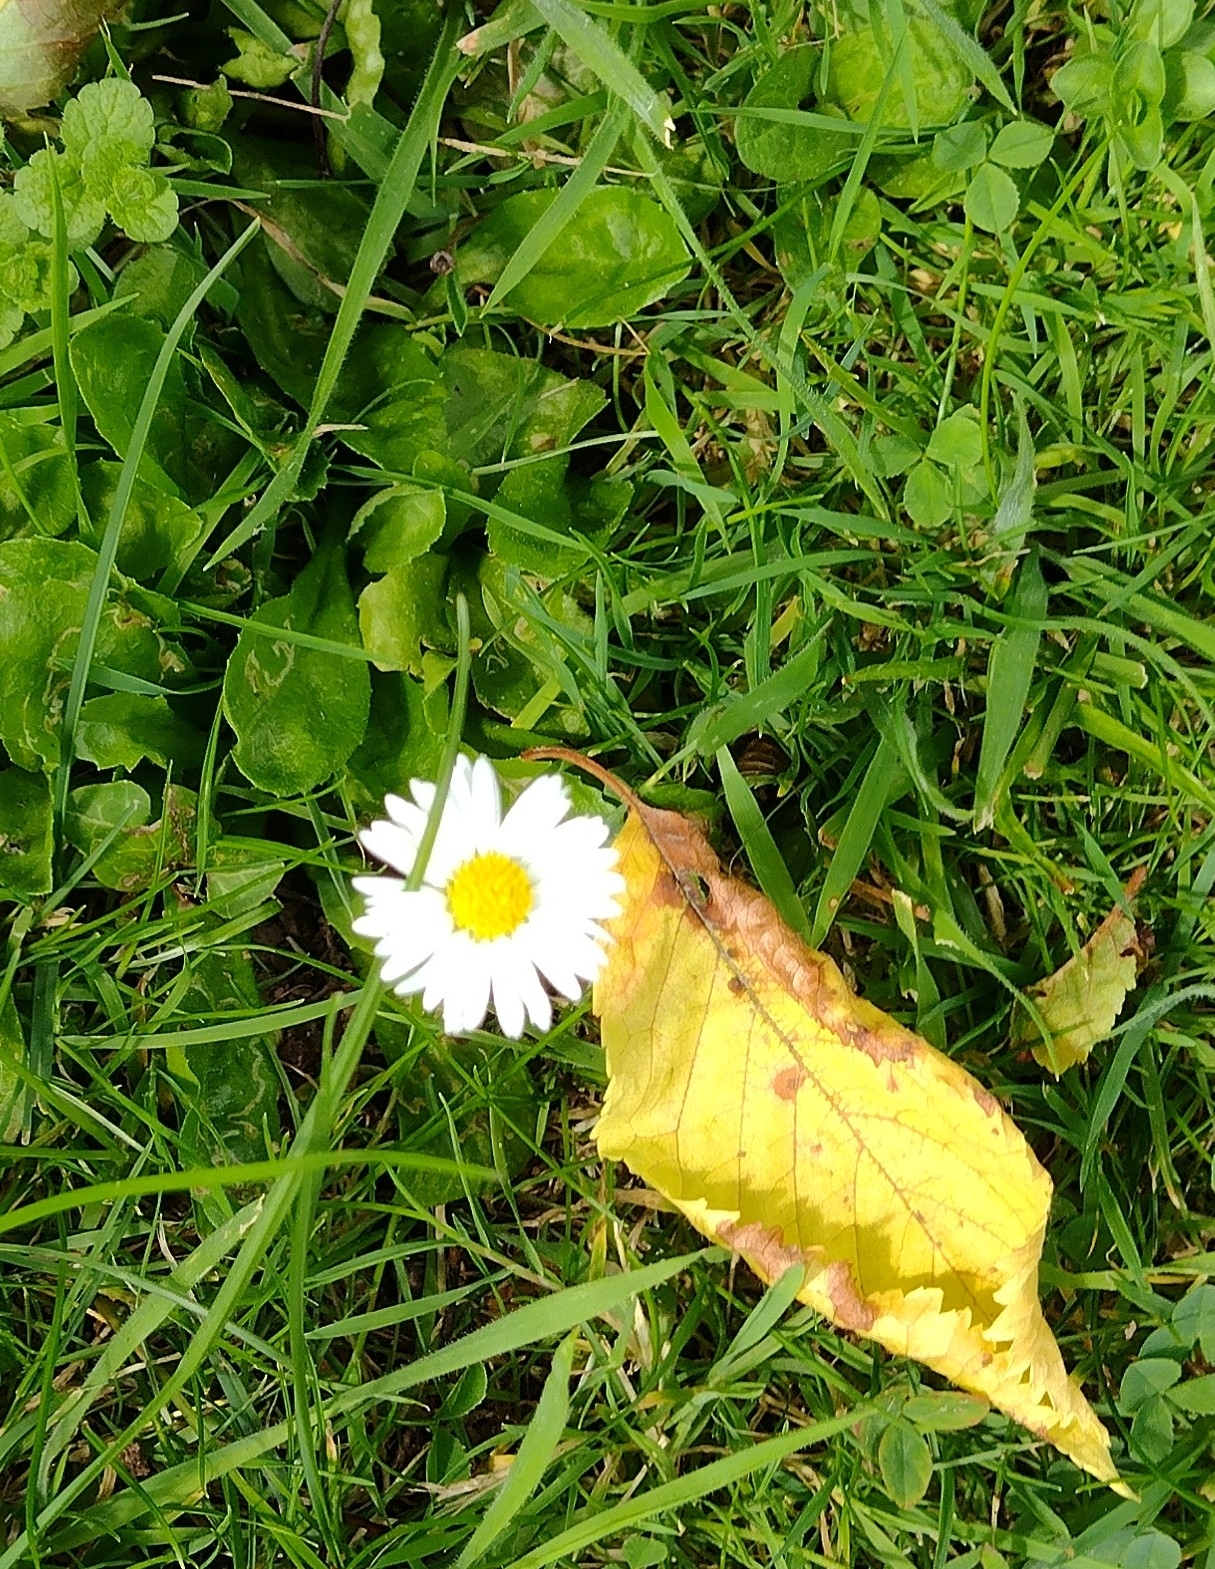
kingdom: Plantae
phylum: Tracheophyta
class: Magnoliopsida
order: Asterales
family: Asteraceae
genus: Bellis
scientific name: Bellis perennis
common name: Lawndaisy
